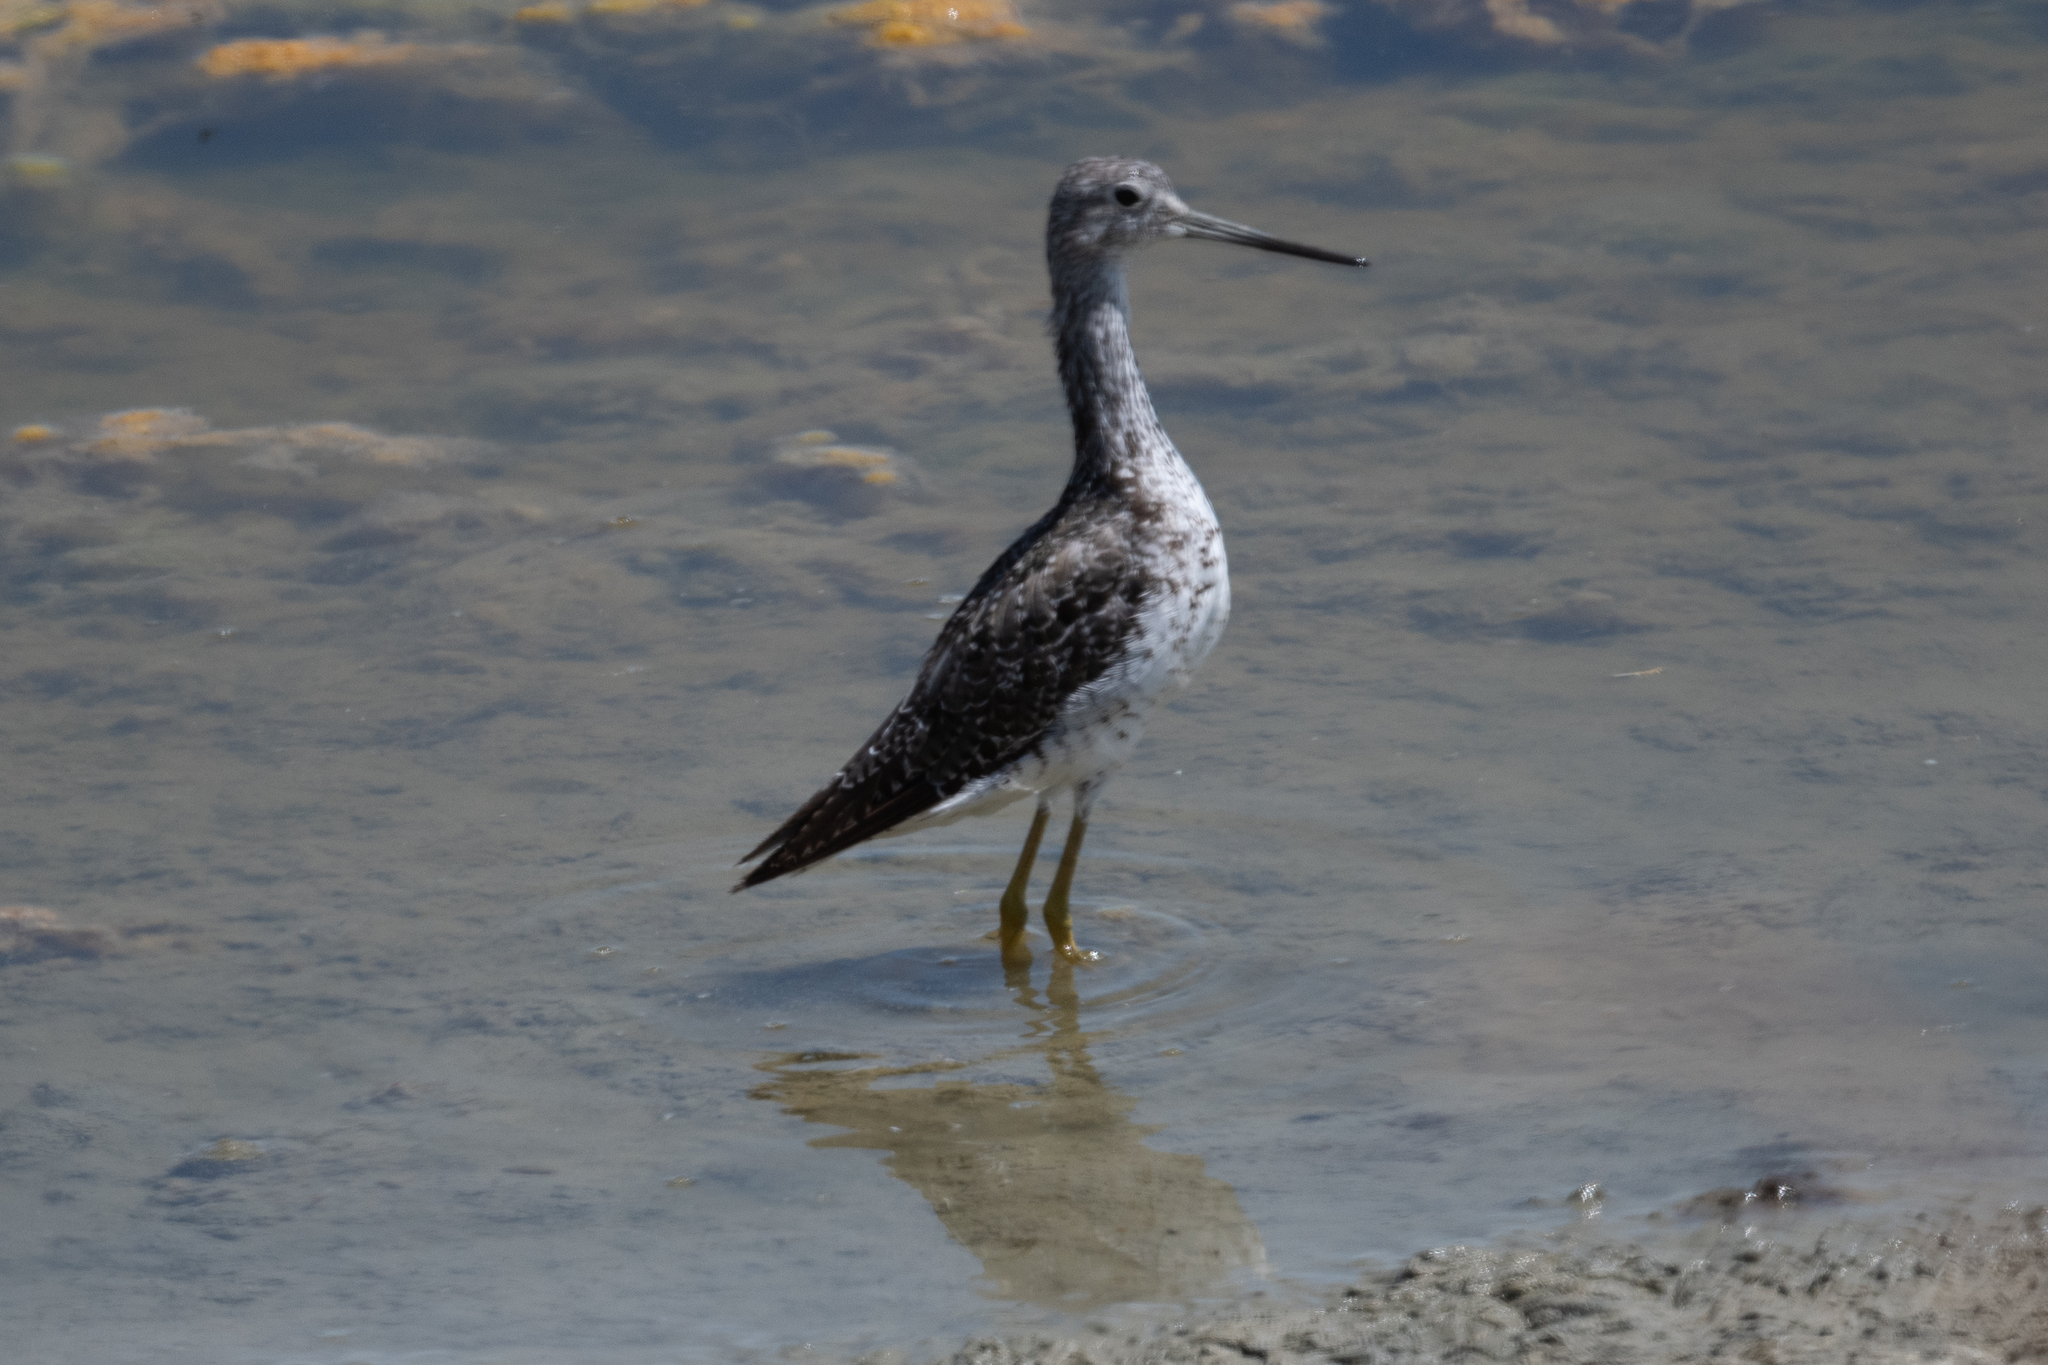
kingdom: Animalia
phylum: Chordata
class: Aves
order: Charadriiformes
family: Scolopacidae
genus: Tringa
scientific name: Tringa melanoleuca
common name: Greater yellowlegs
